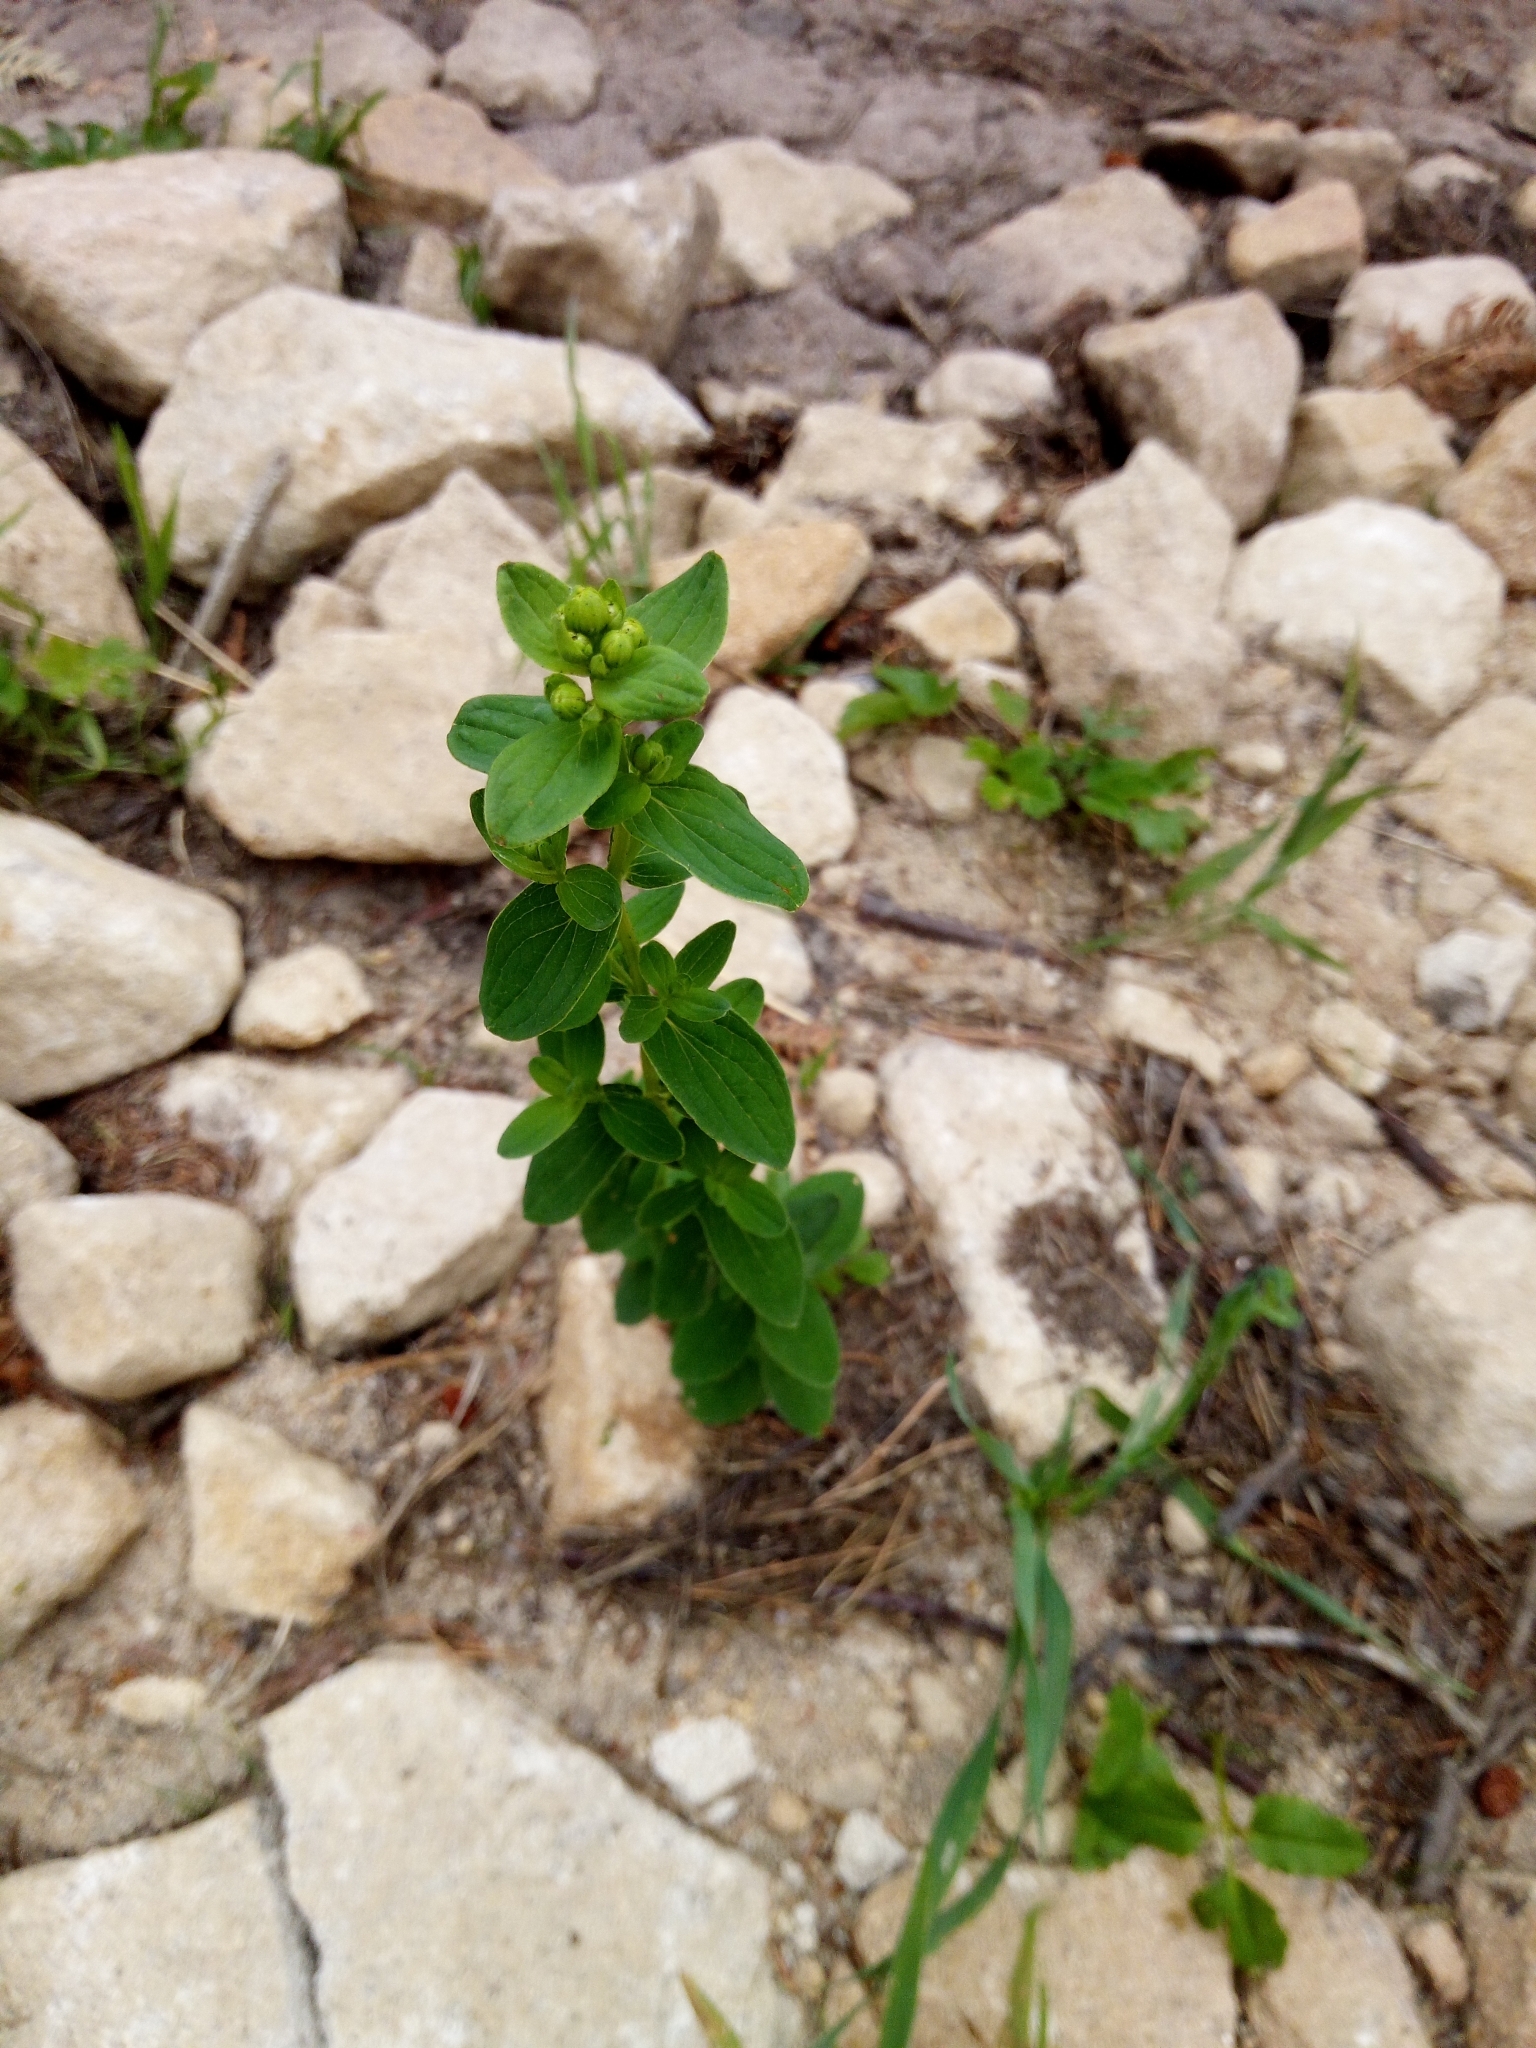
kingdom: Plantae
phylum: Tracheophyta
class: Magnoliopsida
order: Malpighiales
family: Hypericaceae
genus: Hypericum
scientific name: Hypericum maculatum
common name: Imperforate st. john's-wort
